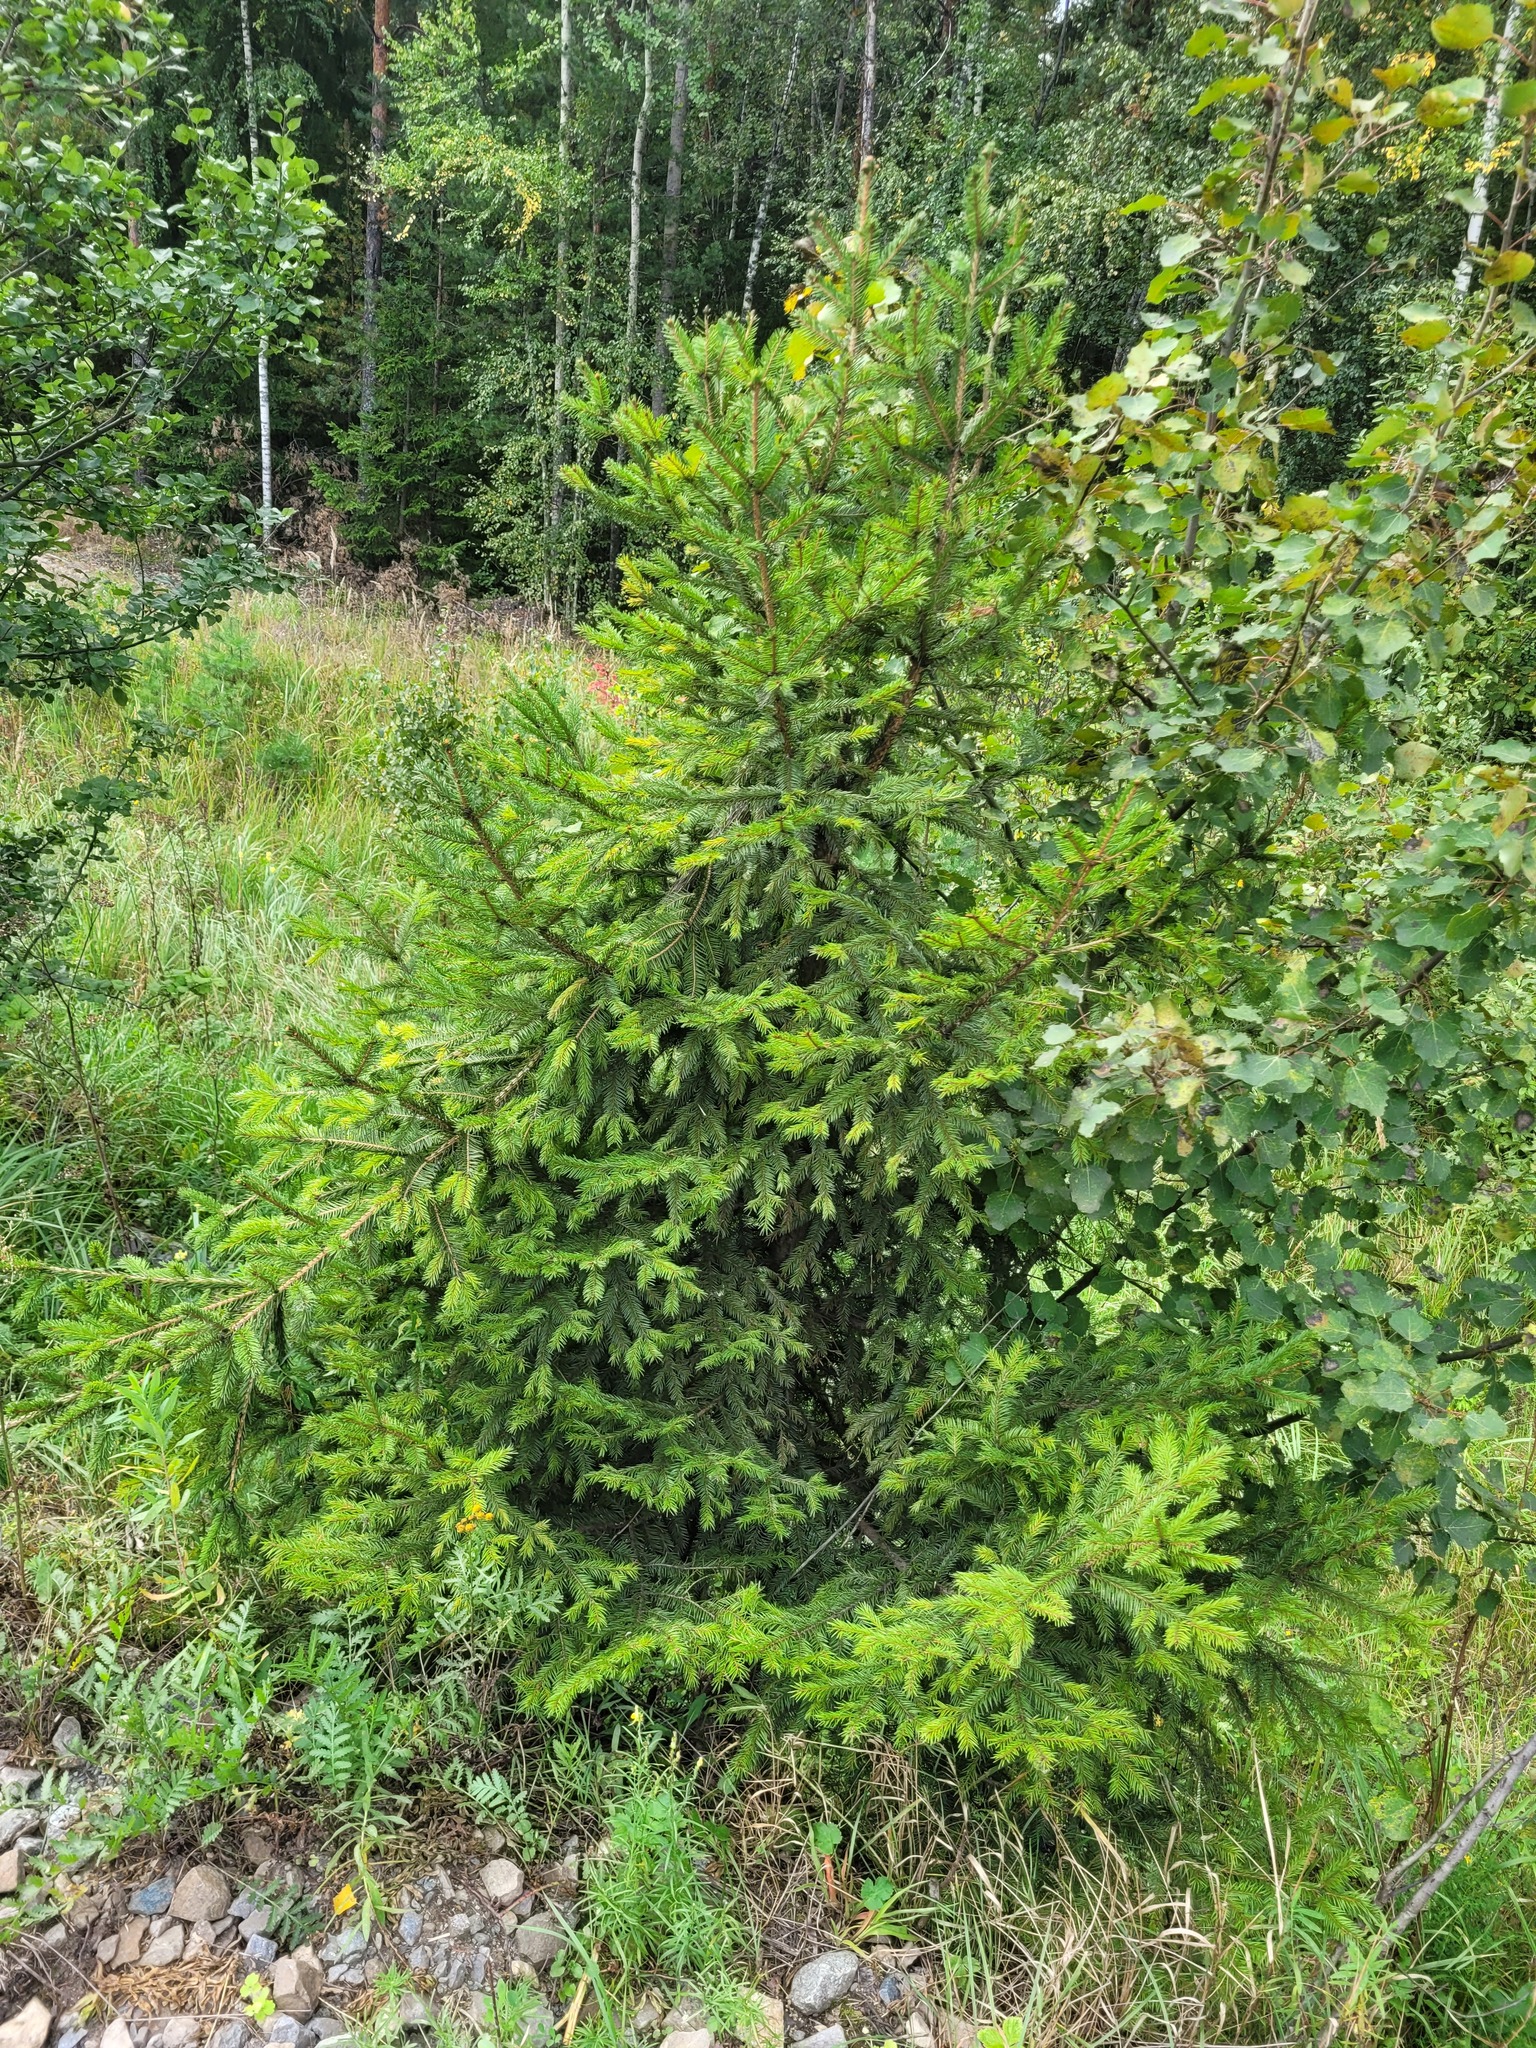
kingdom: Plantae
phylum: Tracheophyta
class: Pinopsida
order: Pinales
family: Pinaceae
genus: Picea
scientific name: Picea abies
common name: Norway spruce
